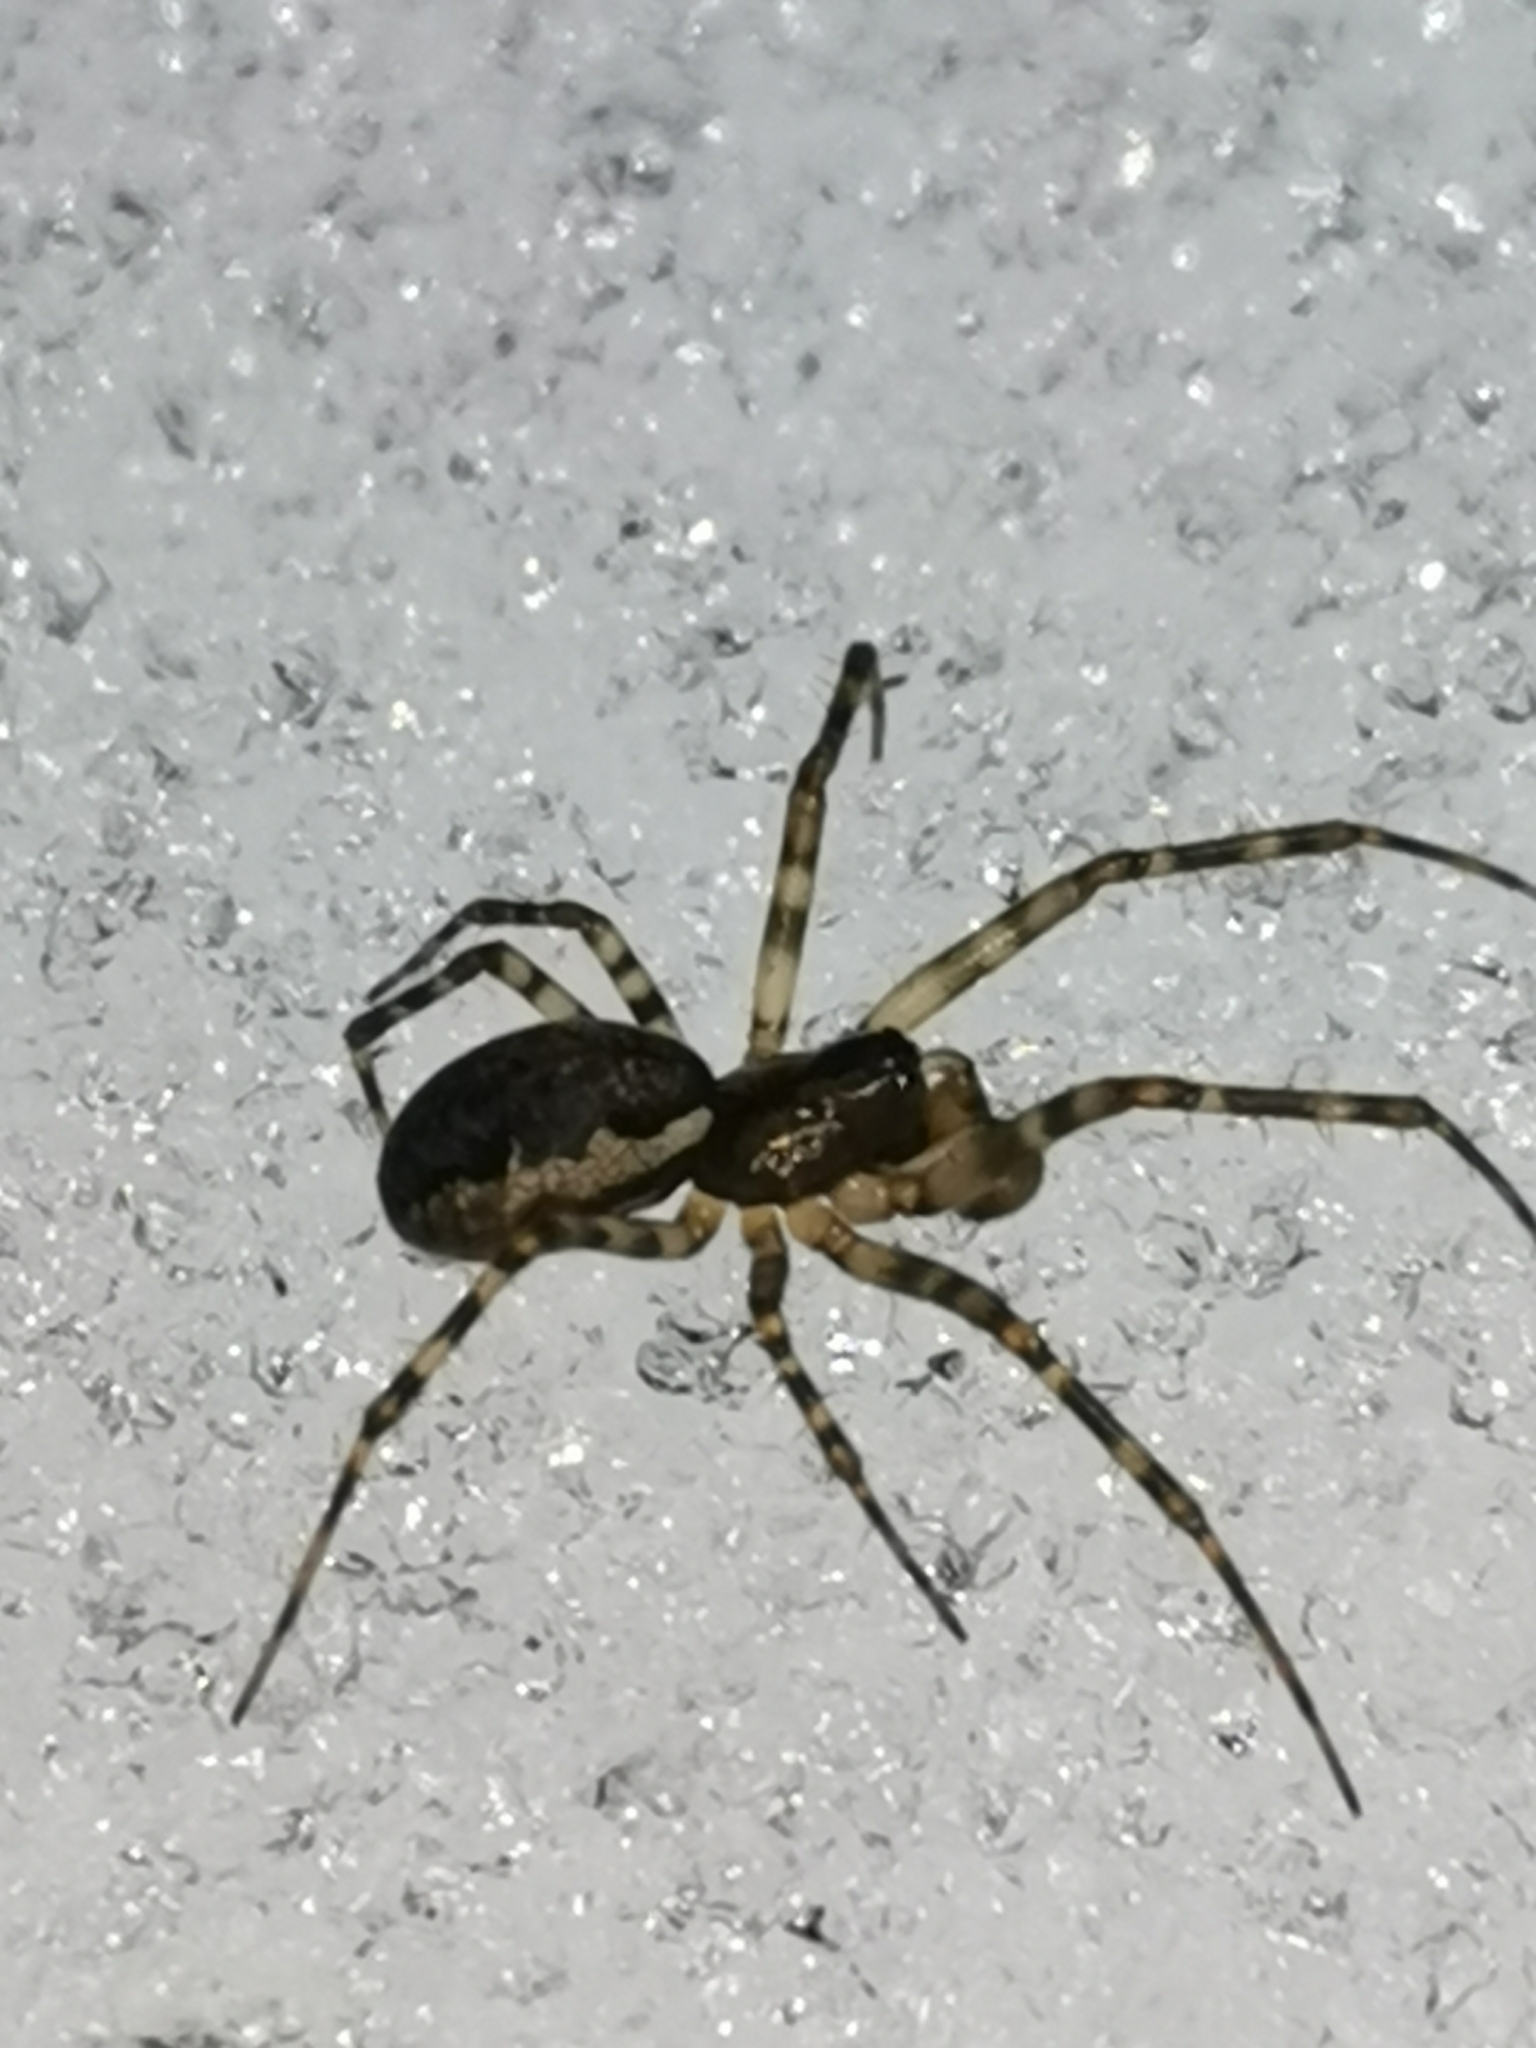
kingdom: Animalia
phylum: Arthropoda
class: Arachnida
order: Araneae
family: Linyphiidae
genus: Neriene
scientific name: Neriene montana
